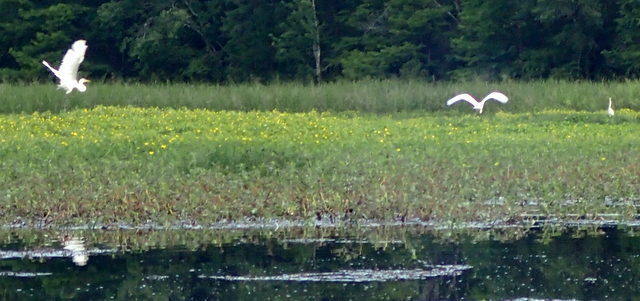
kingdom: Animalia
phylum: Chordata
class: Aves
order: Pelecaniformes
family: Ardeidae
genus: Ardea
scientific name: Ardea alba
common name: Great egret
